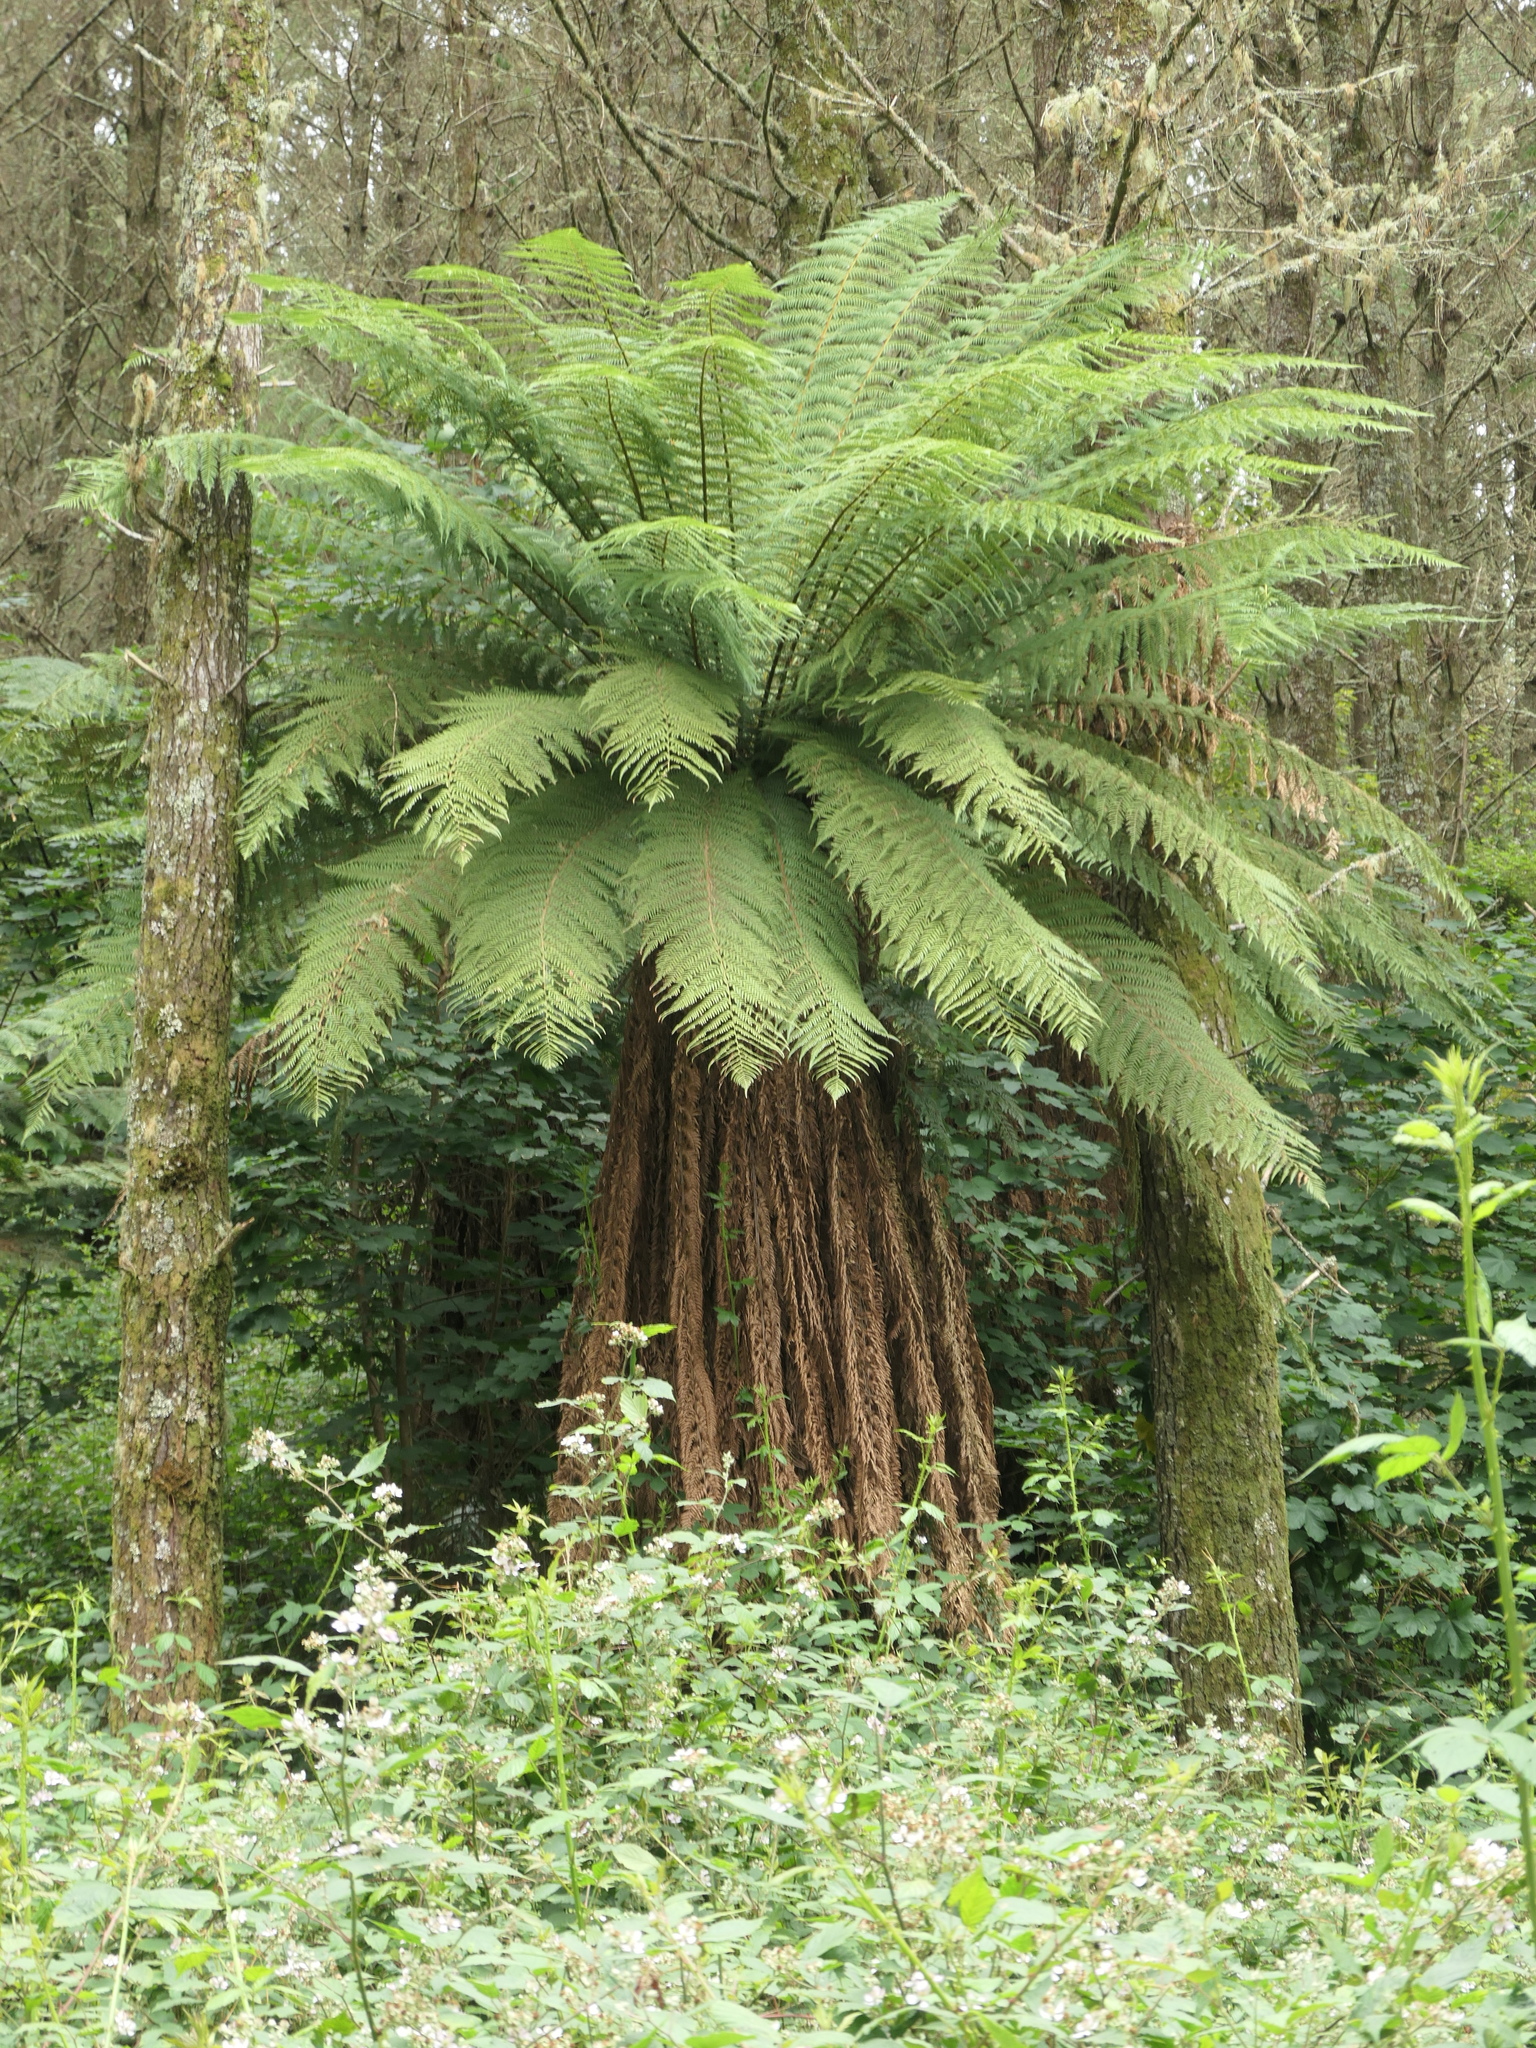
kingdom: Plantae
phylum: Tracheophyta
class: Polypodiopsida
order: Cyatheales
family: Dicksoniaceae
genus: Dicksonia
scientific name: Dicksonia fibrosa
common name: Golden tree fern
